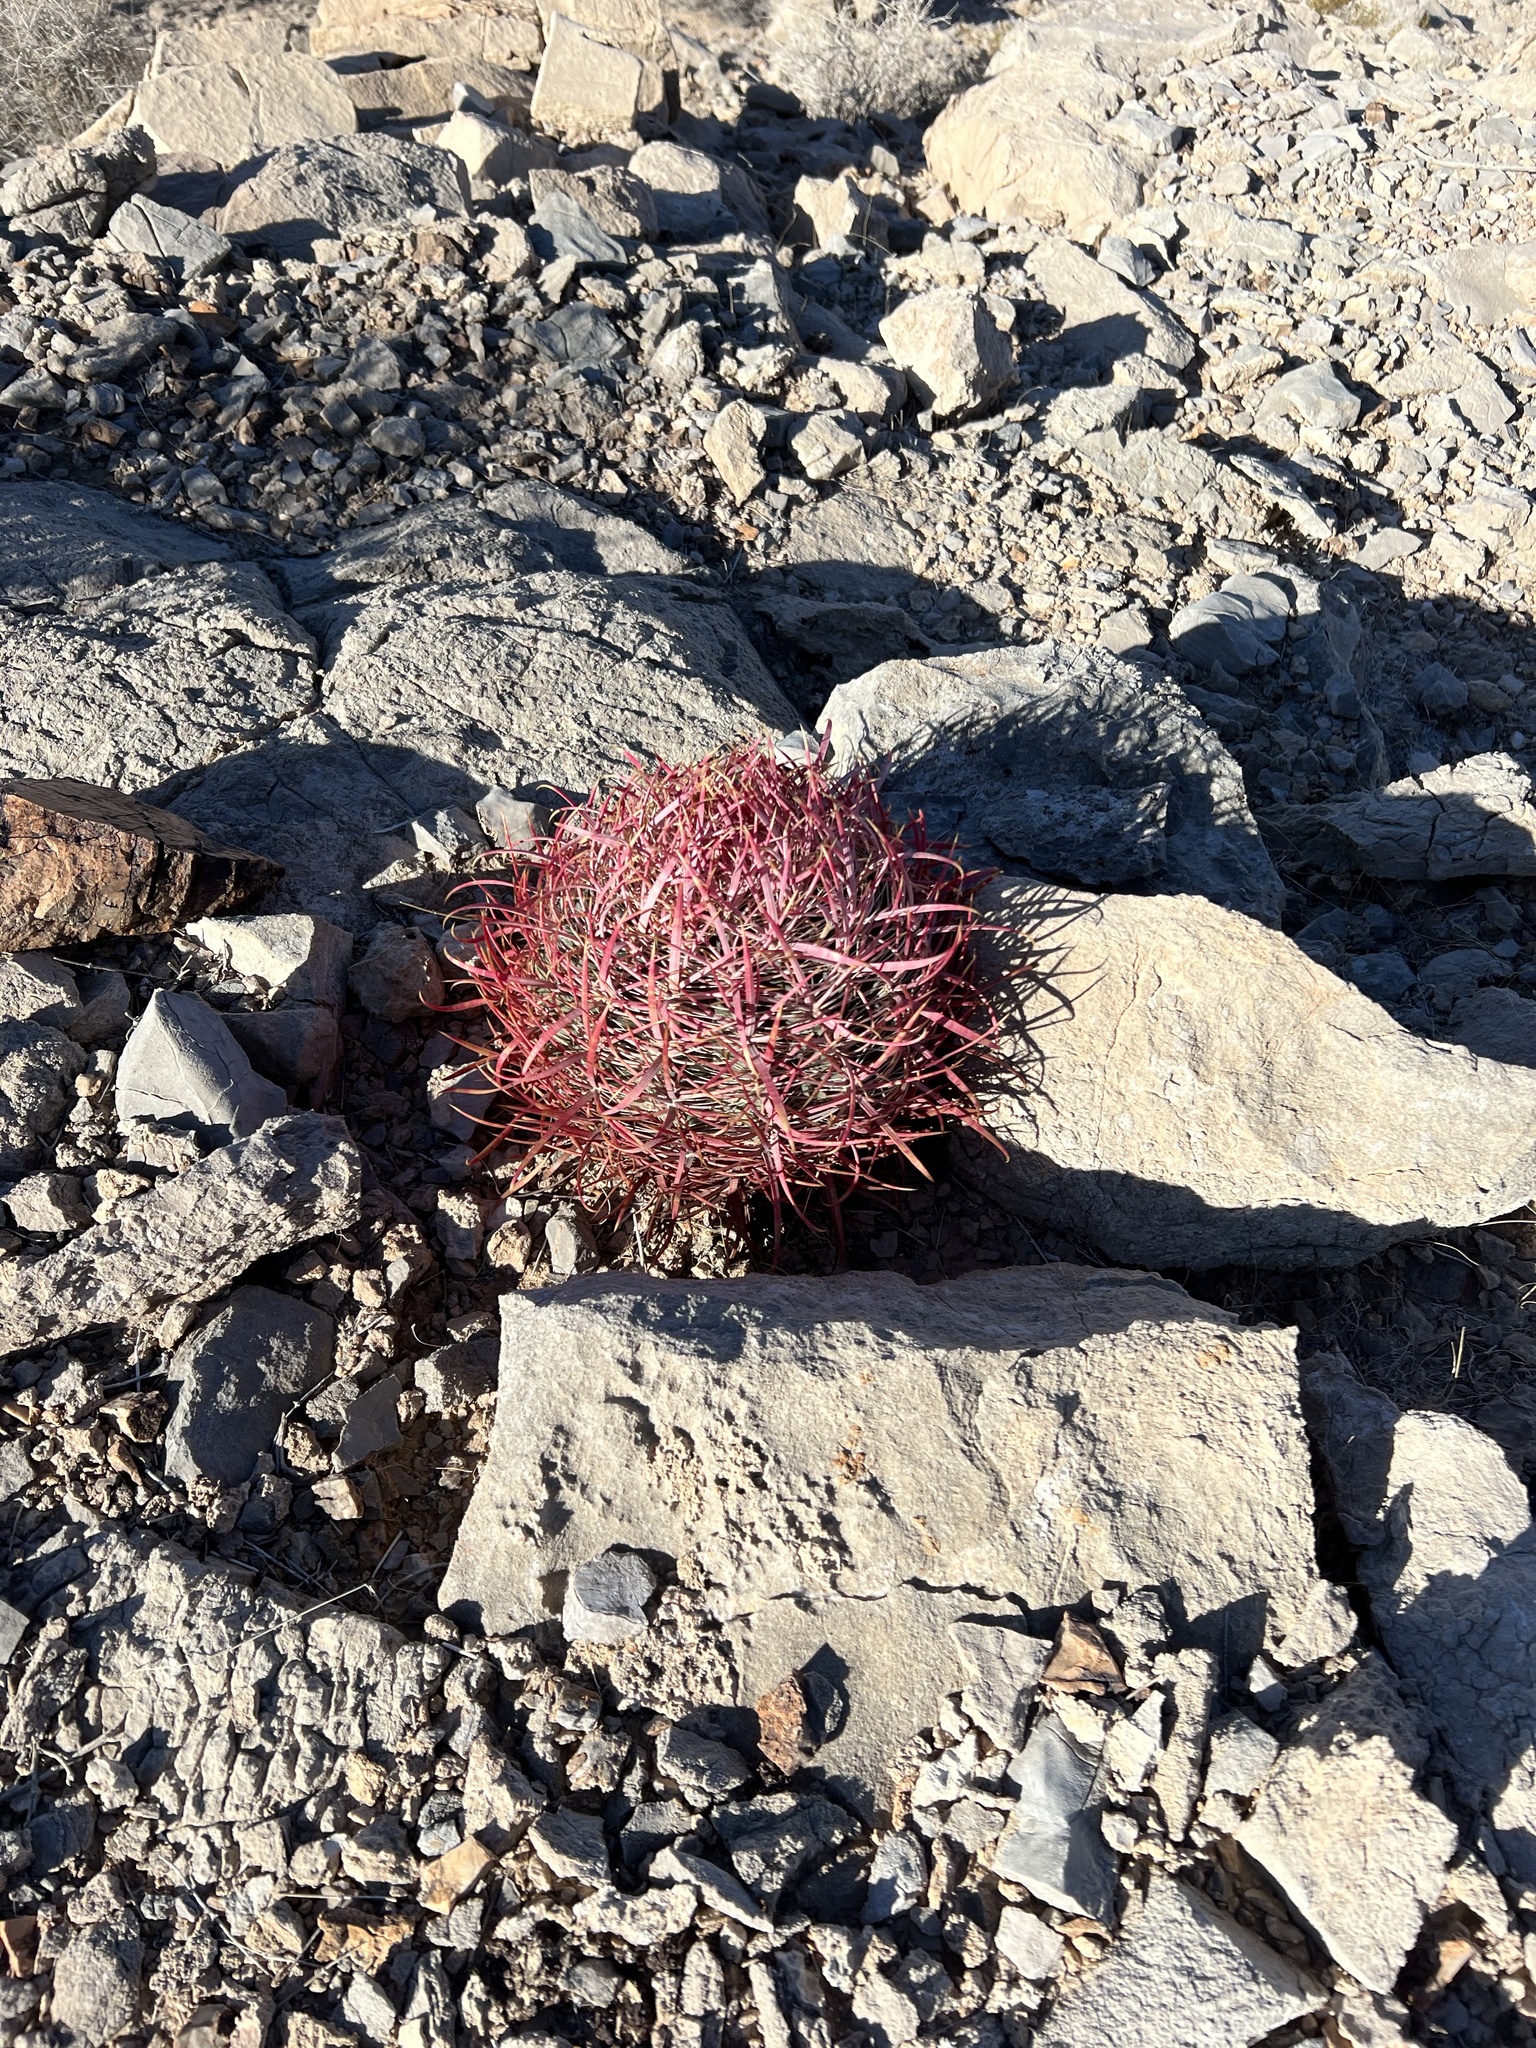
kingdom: Plantae
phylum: Tracheophyta
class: Magnoliopsida
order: Caryophyllales
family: Cactaceae
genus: Ferocactus
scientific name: Ferocactus cylindraceus
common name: California barrel cactus
